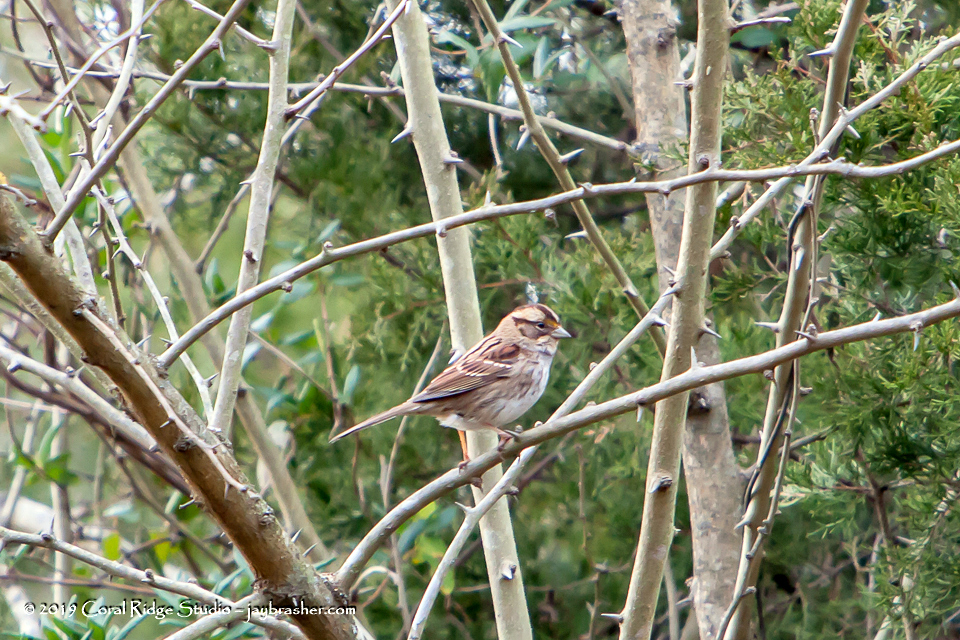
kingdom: Animalia
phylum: Chordata
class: Aves
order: Passeriformes
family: Passerellidae
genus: Zonotrichia
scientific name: Zonotrichia albicollis
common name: White-throated sparrow
